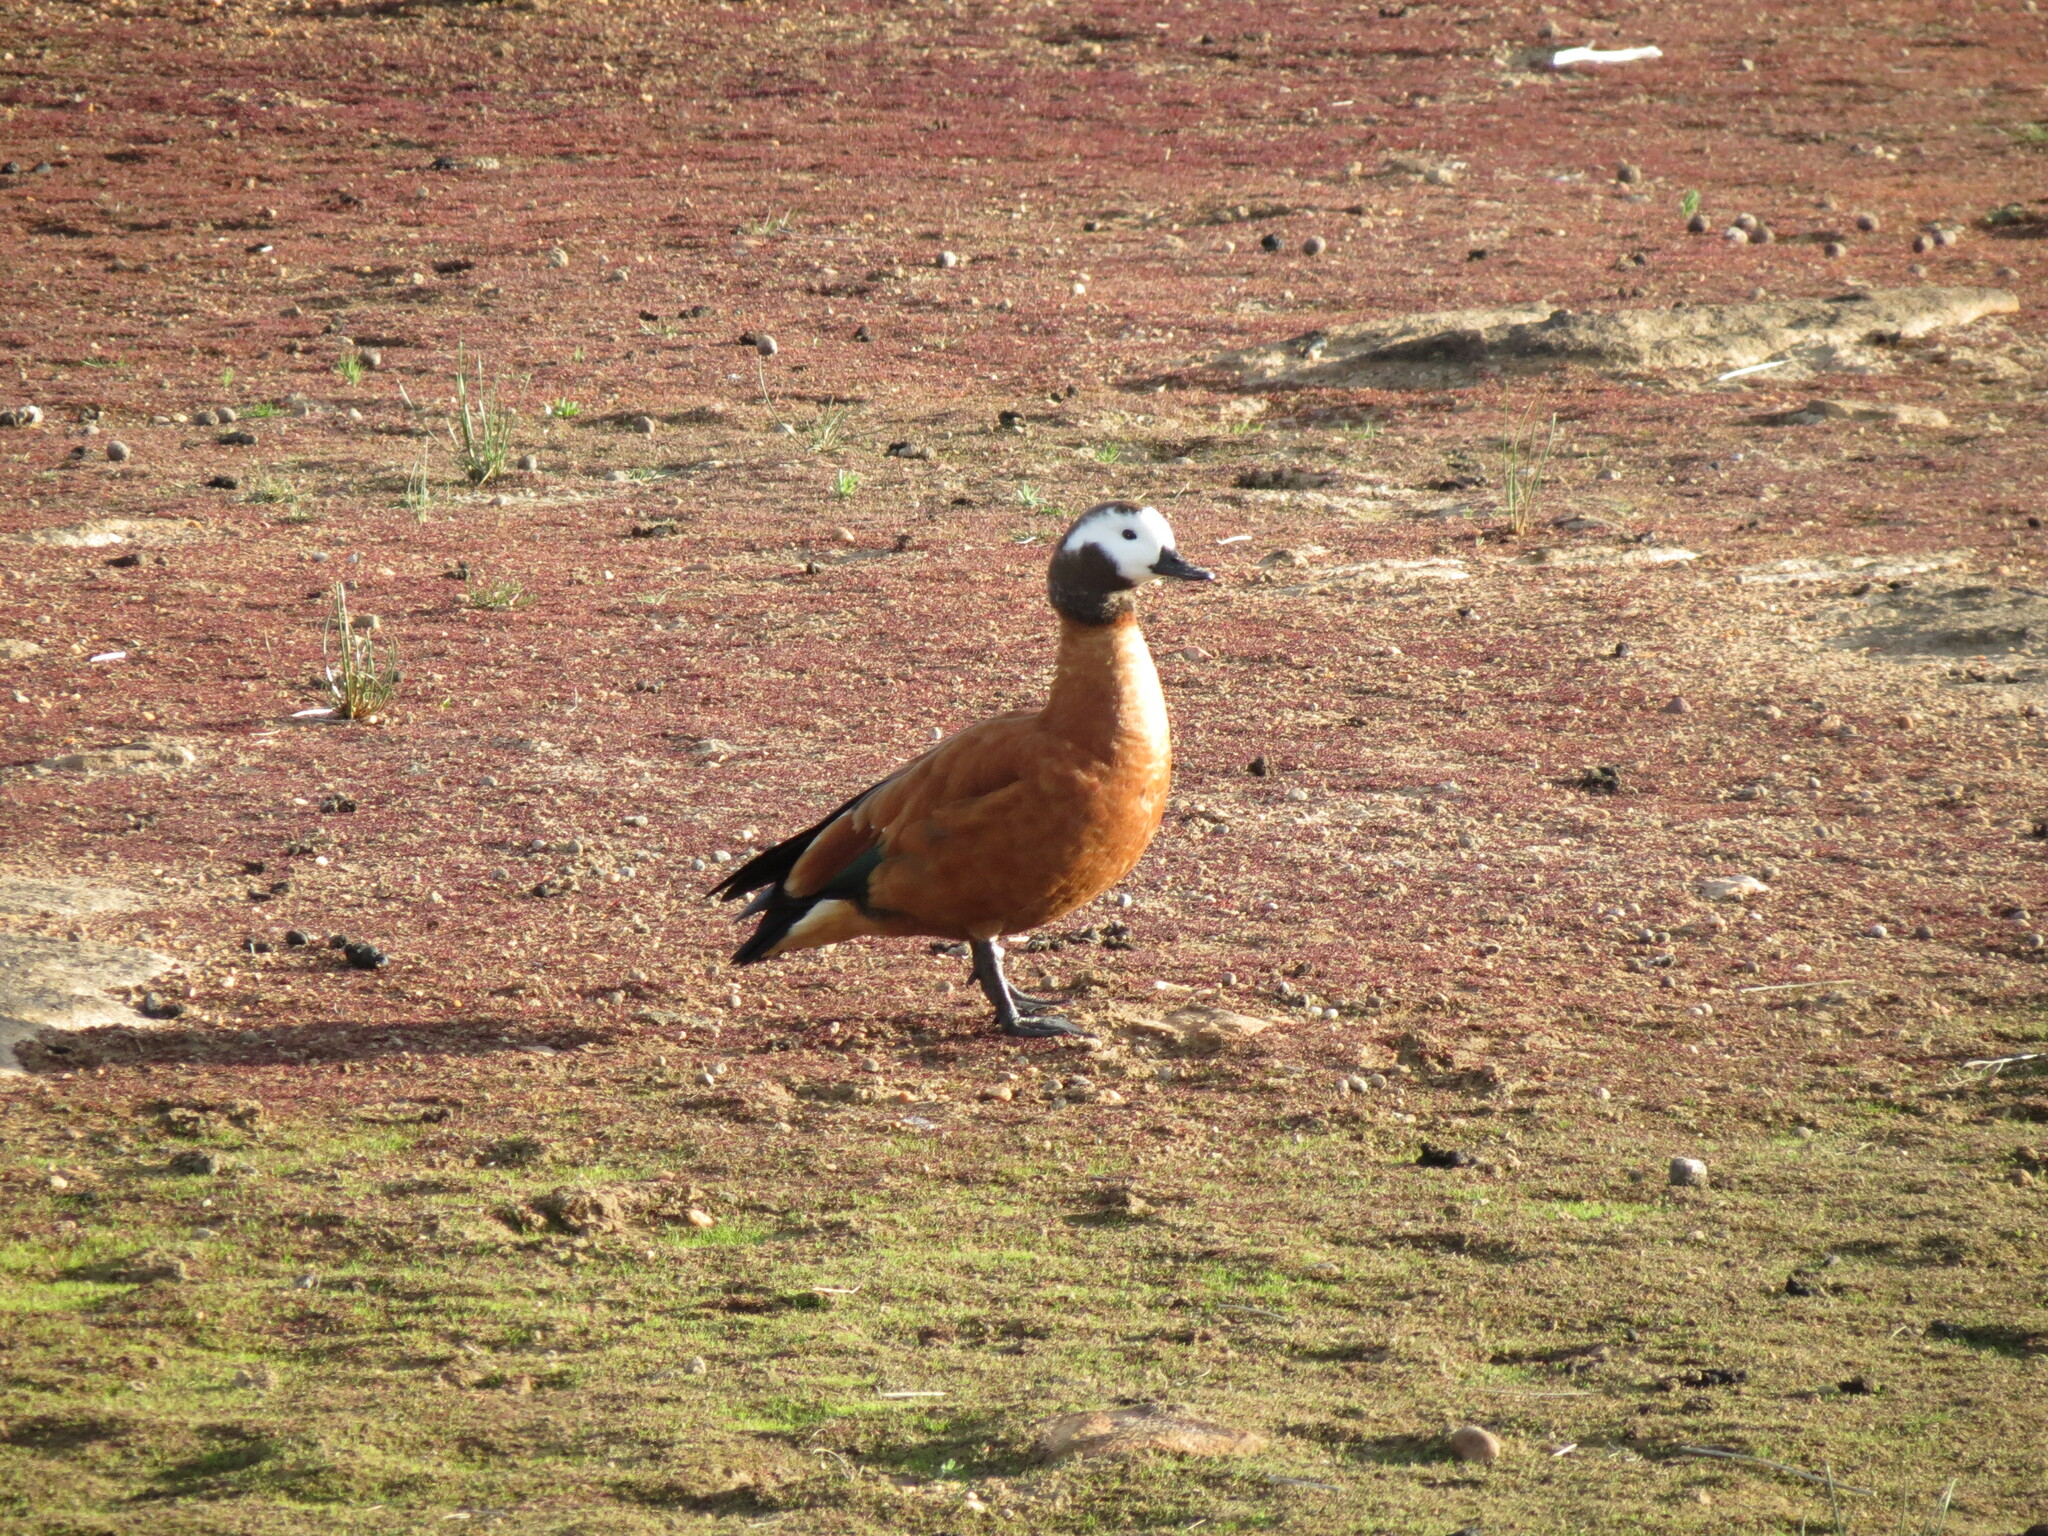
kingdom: Animalia
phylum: Chordata
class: Aves
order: Anseriformes
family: Anatidae
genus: Tadorna
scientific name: Tadorna cana
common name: South african shelduck
